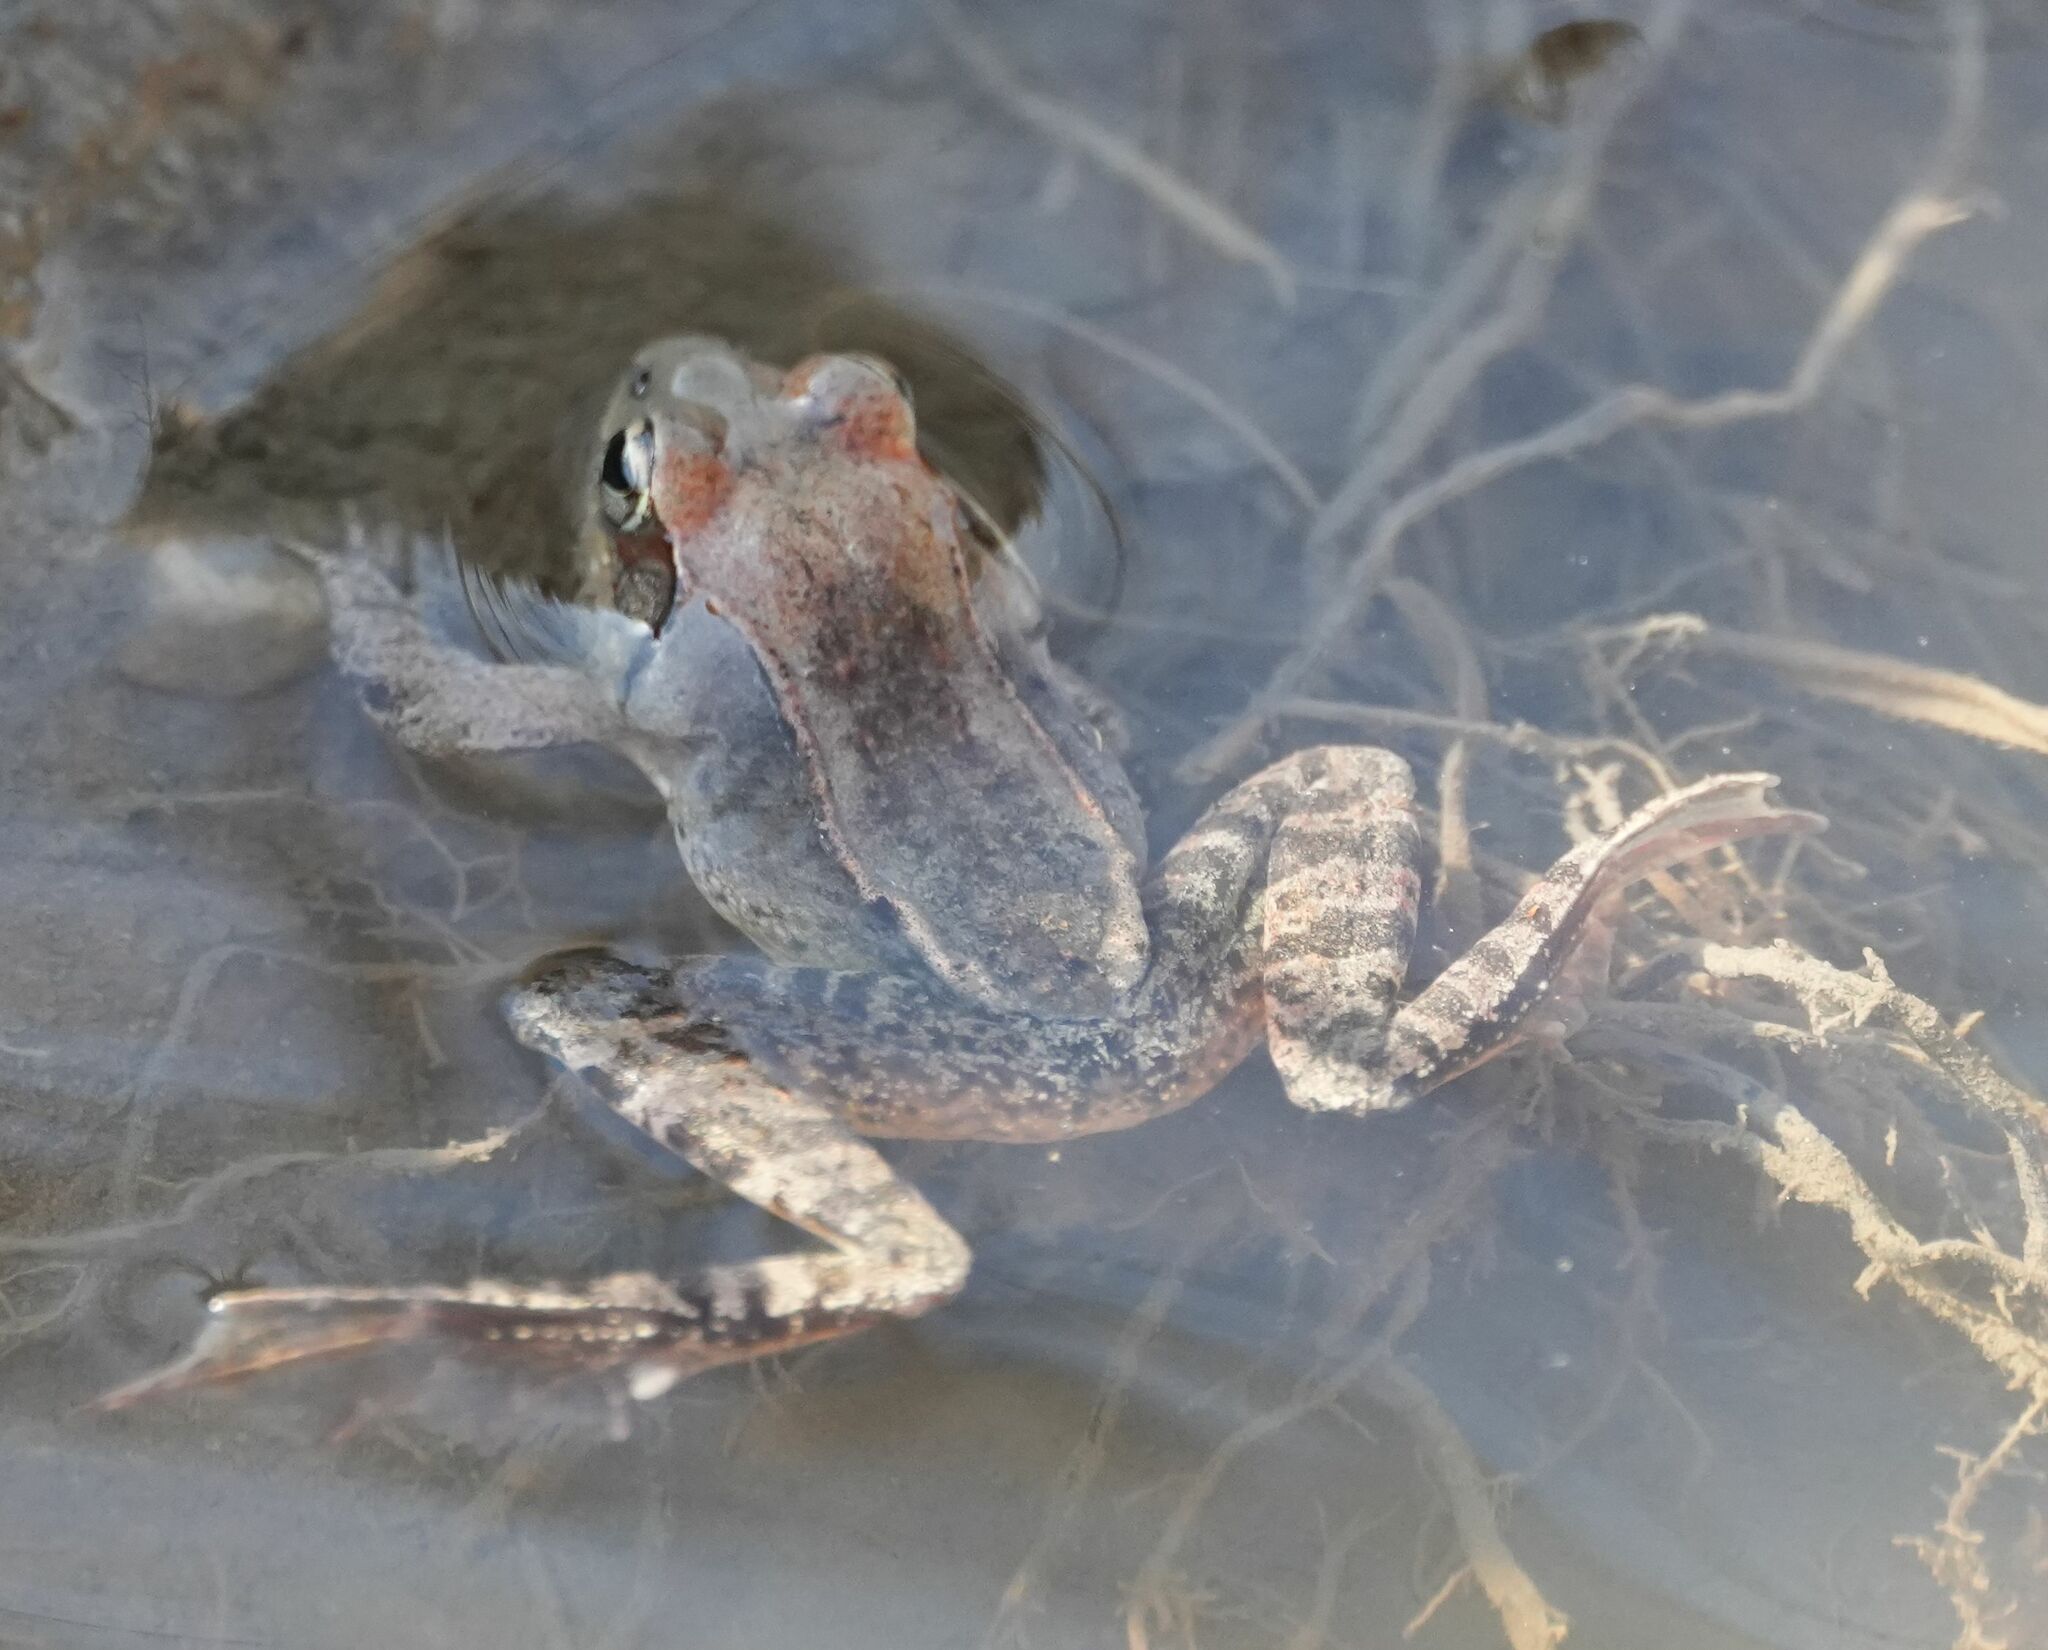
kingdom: Animalia
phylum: Chordata
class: Amphibia
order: Anura
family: Ranidae
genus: Lithobates
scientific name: Lithobates sylvaticus
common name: Wood frog
